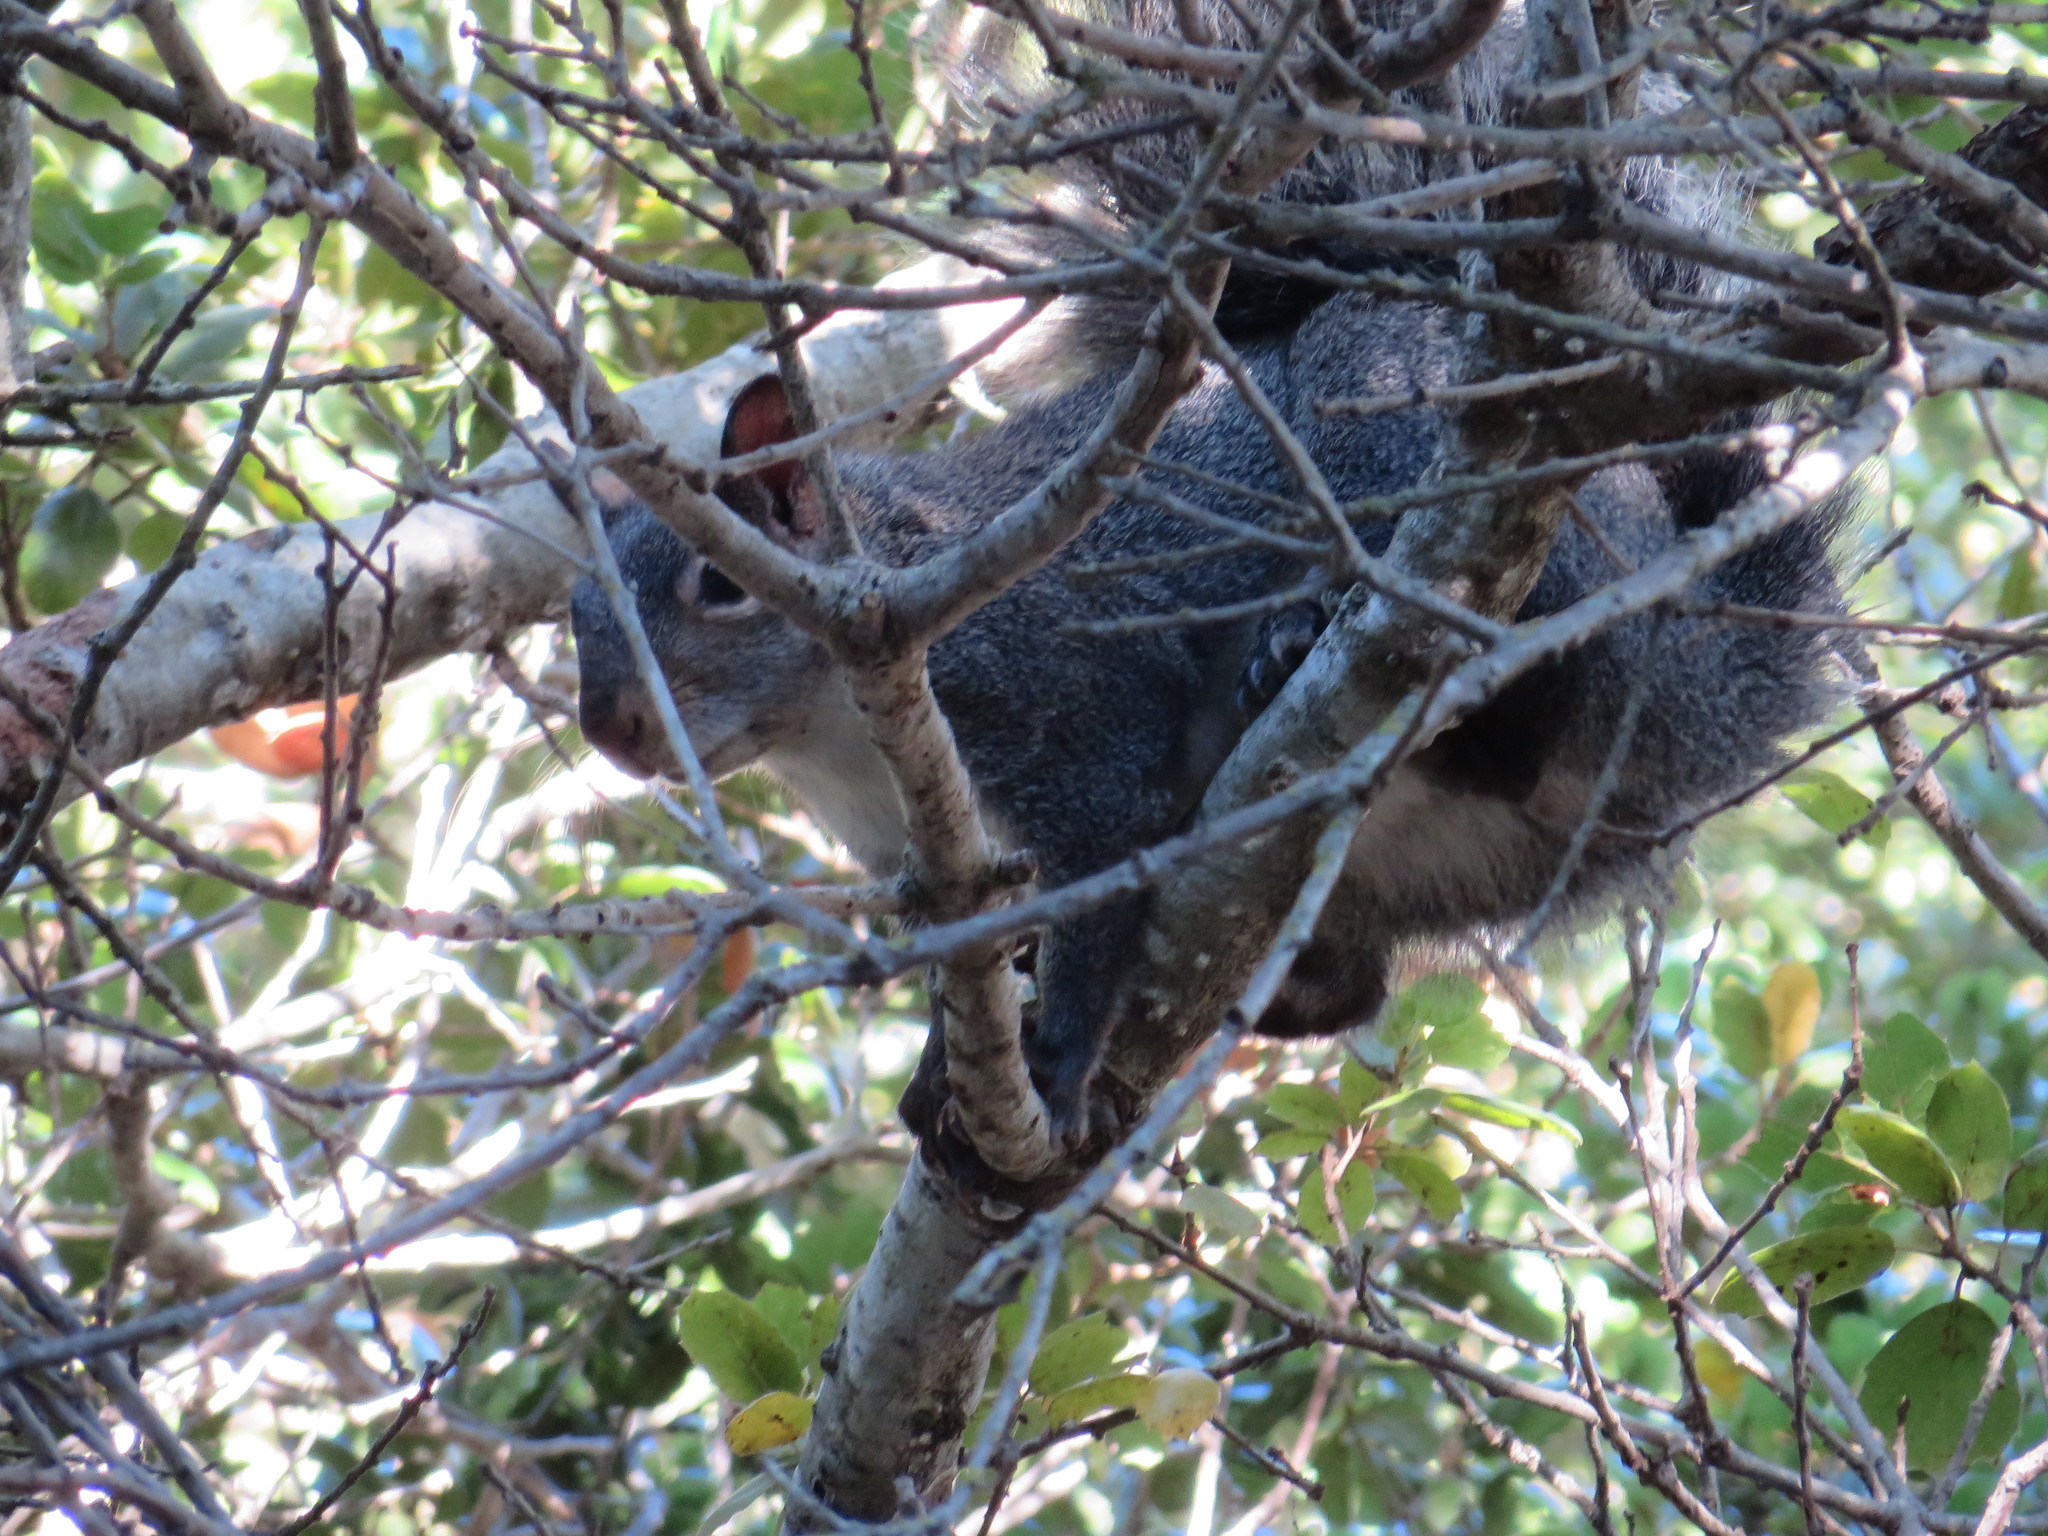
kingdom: Animalia
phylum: Chordata
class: Mammalia
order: Rodentia
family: Sciuridae
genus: Sciurus
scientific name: Sciurus griseus
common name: Western gray squirrel
